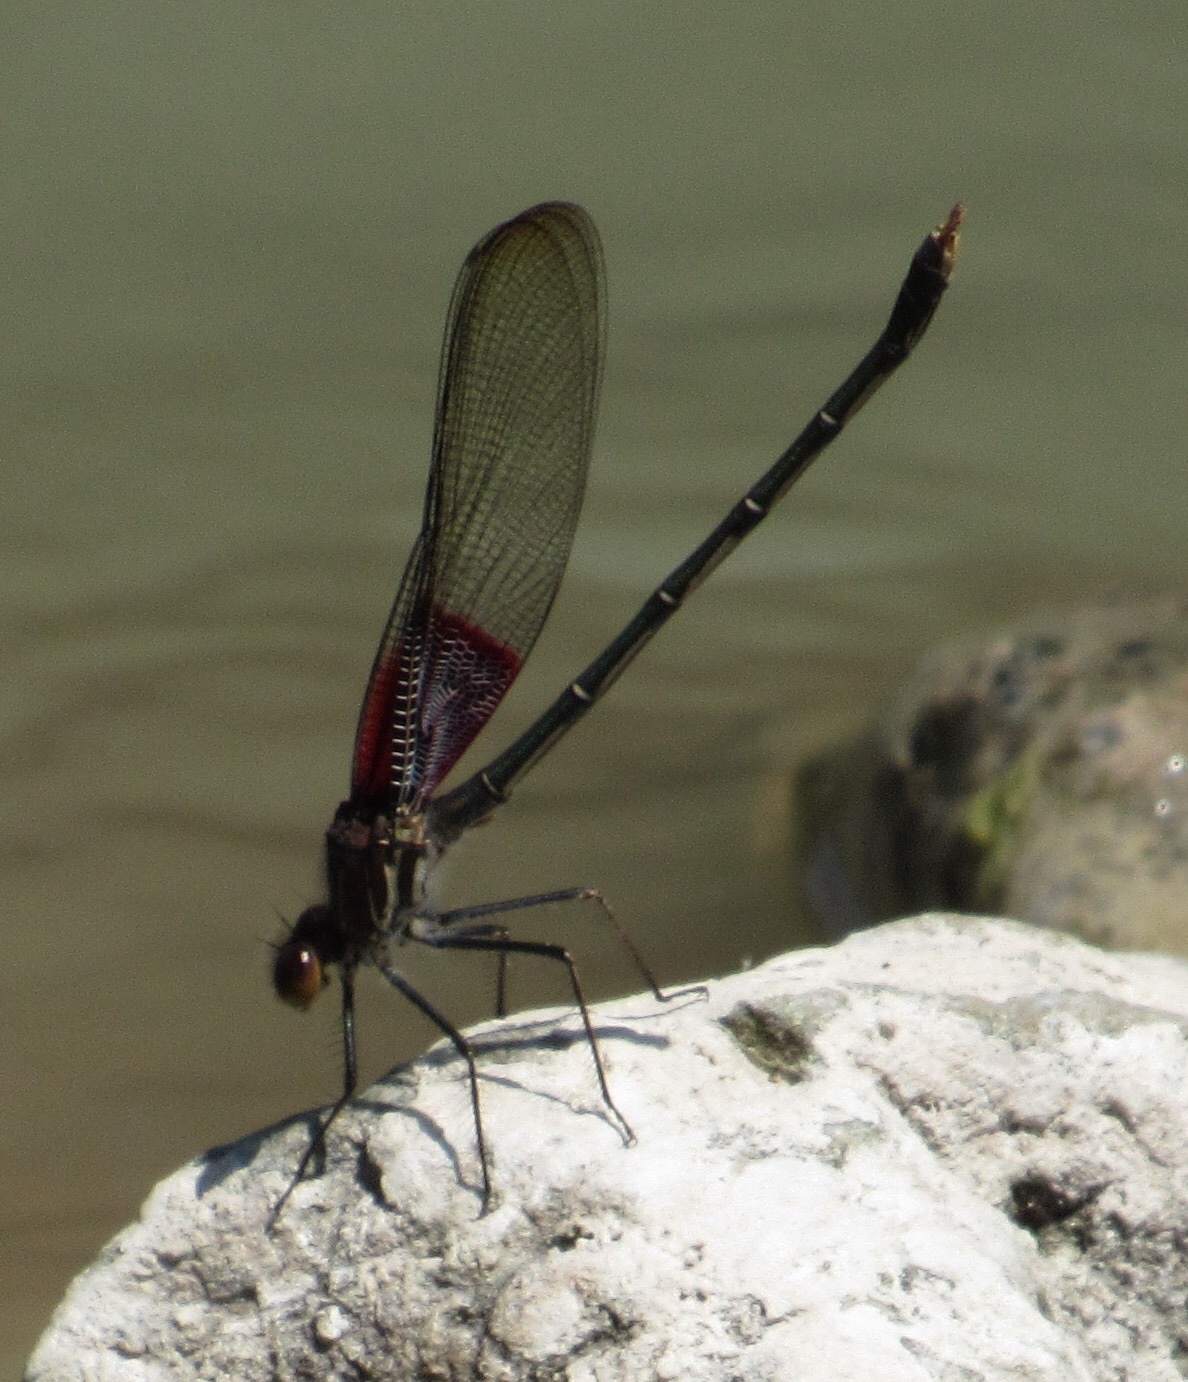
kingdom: Animalia
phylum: Arthropoda
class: Insecta
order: Odonata
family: Calopterygidae
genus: Hetaerina
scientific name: Hetaerina americana
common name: American rubyspot
